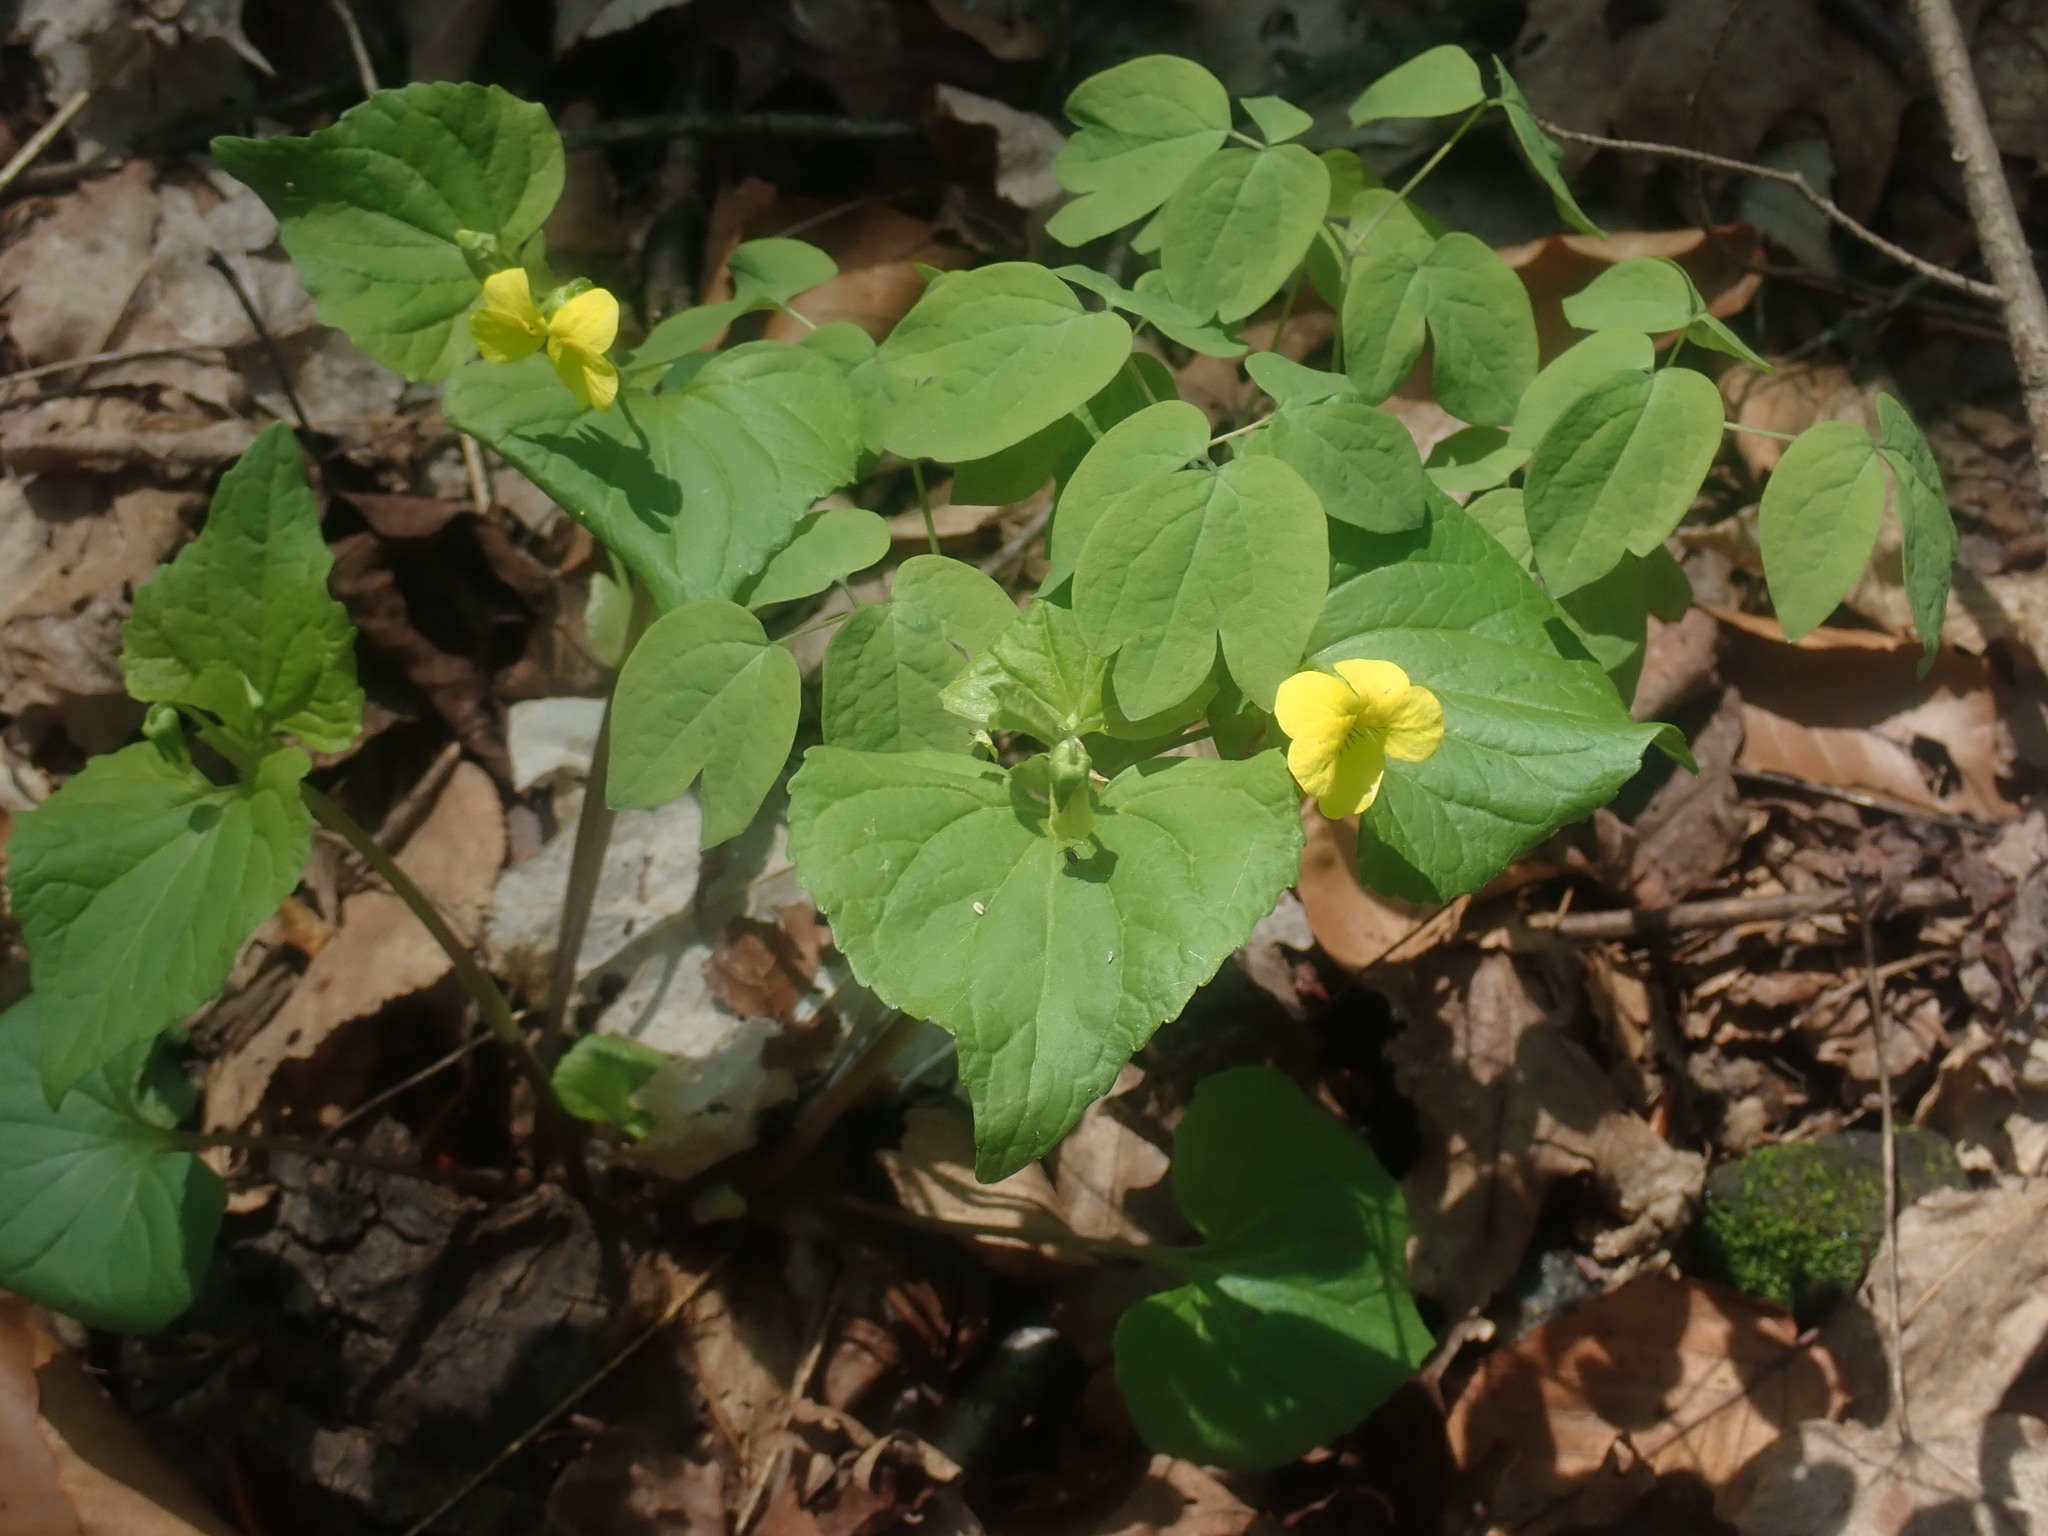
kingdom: Plantae
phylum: Tracheophyta
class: Magnoliopsida
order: Malpighiales
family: Violaceae
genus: Viola
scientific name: Viola eriocarpa
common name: Smooth yellow violet
